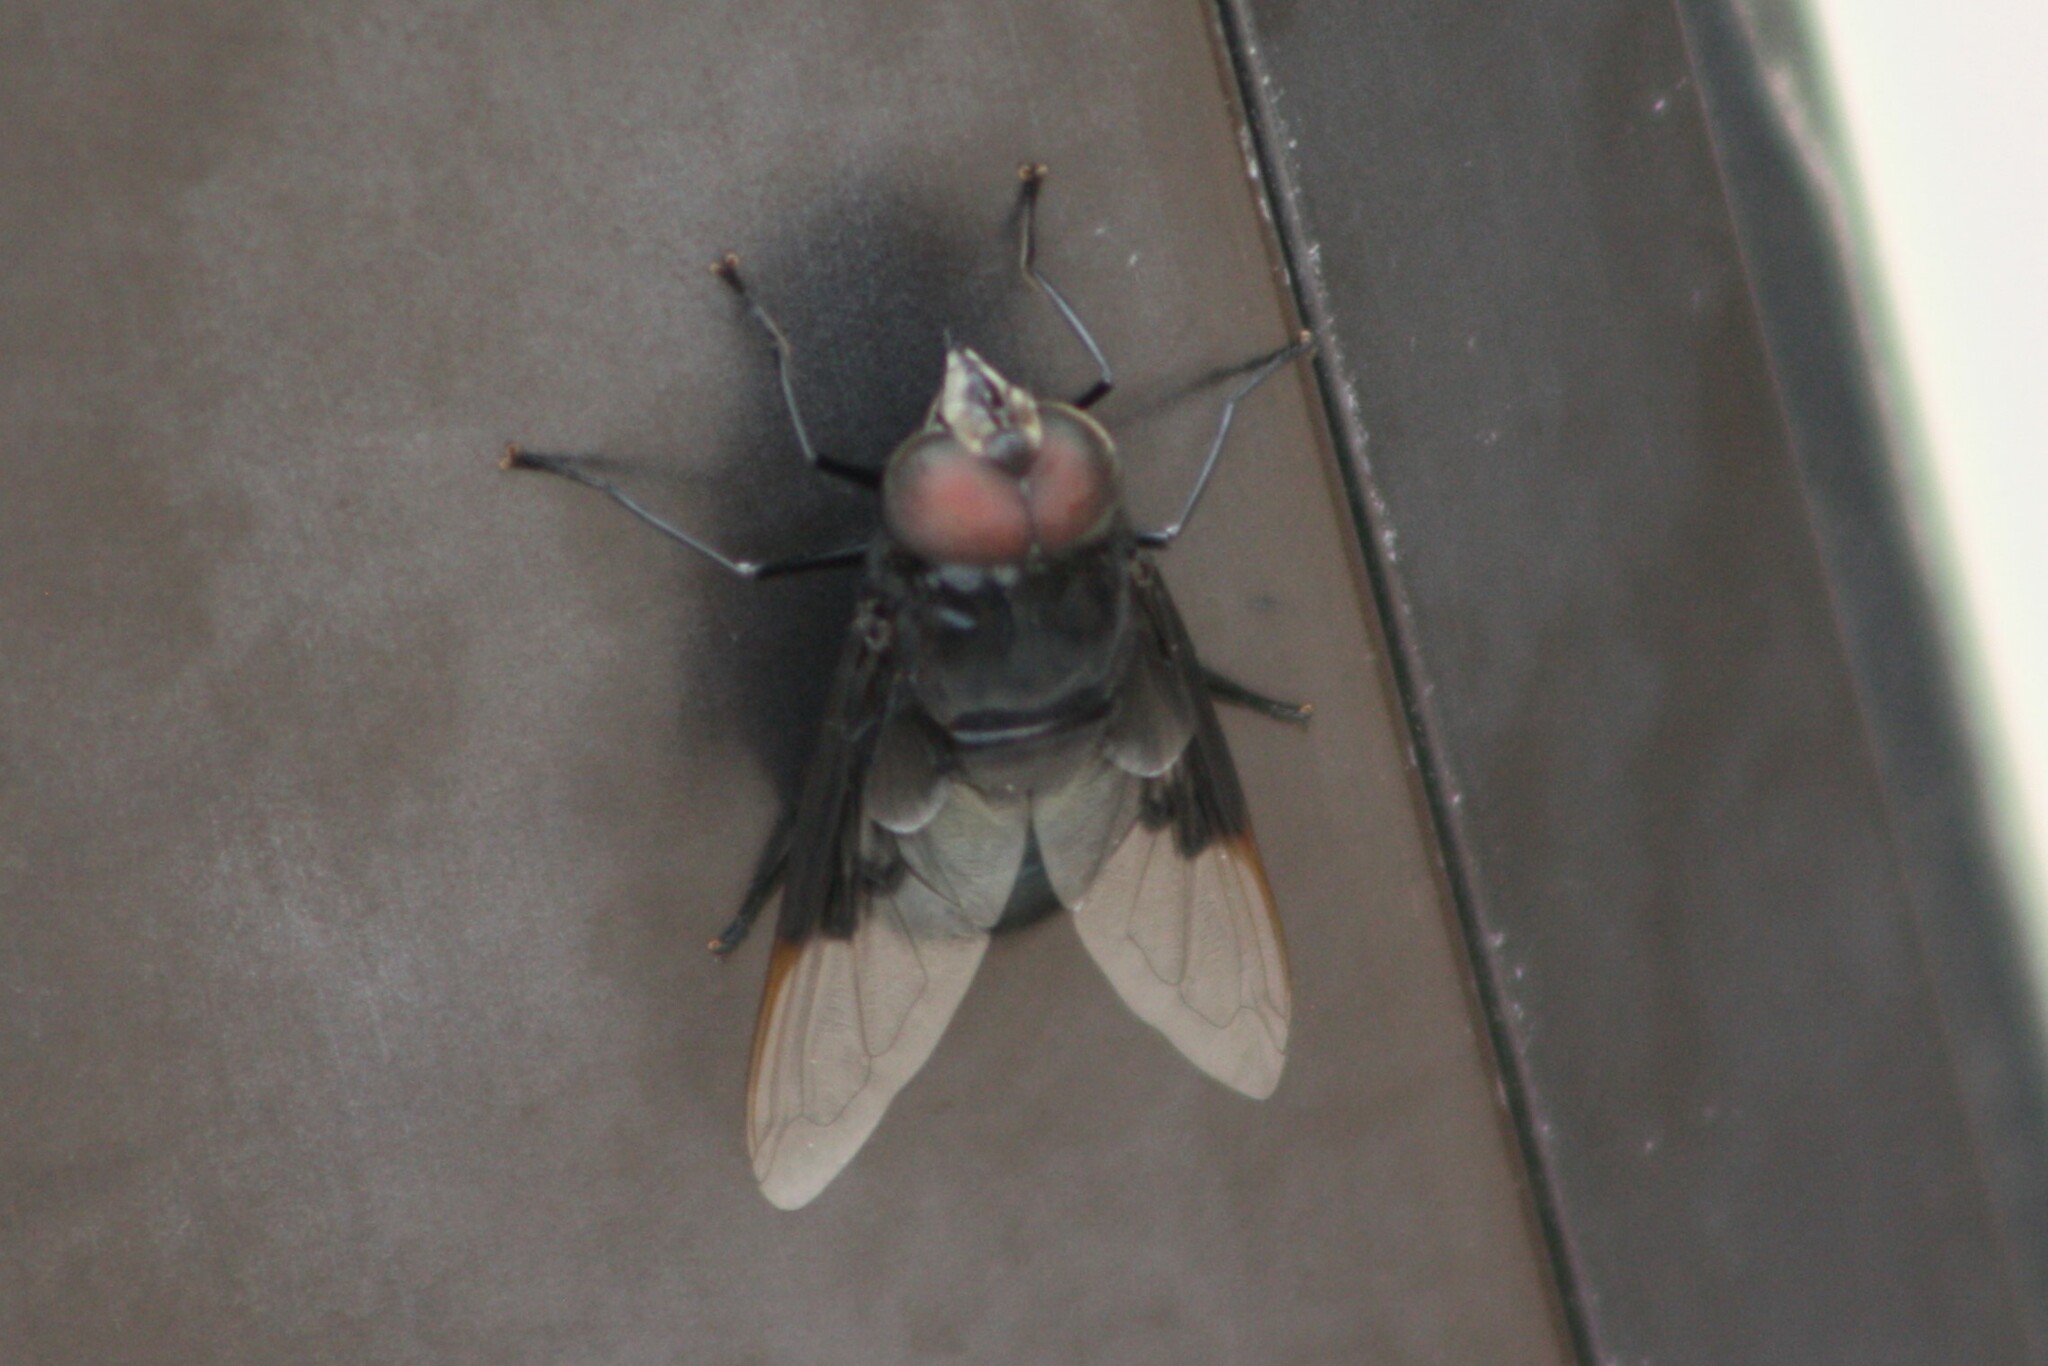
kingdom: Animalia
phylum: Arthropoda
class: Insecta
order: Diptera
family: Syrphidae
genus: Copestylum
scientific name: Copestylum
